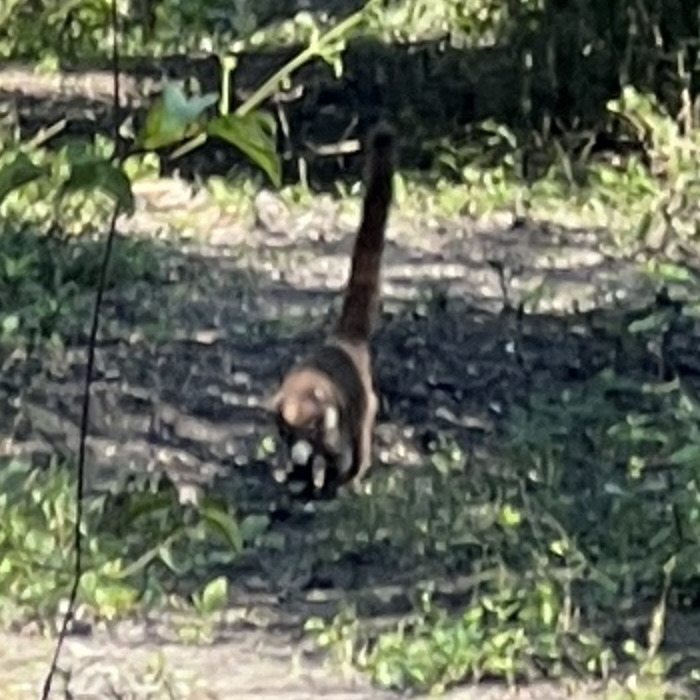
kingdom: Animalia
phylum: Chordata
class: Mammalia
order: Carnivora
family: Procyonidae
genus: Nasua
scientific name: Nasua narica
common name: White-nosed coati
